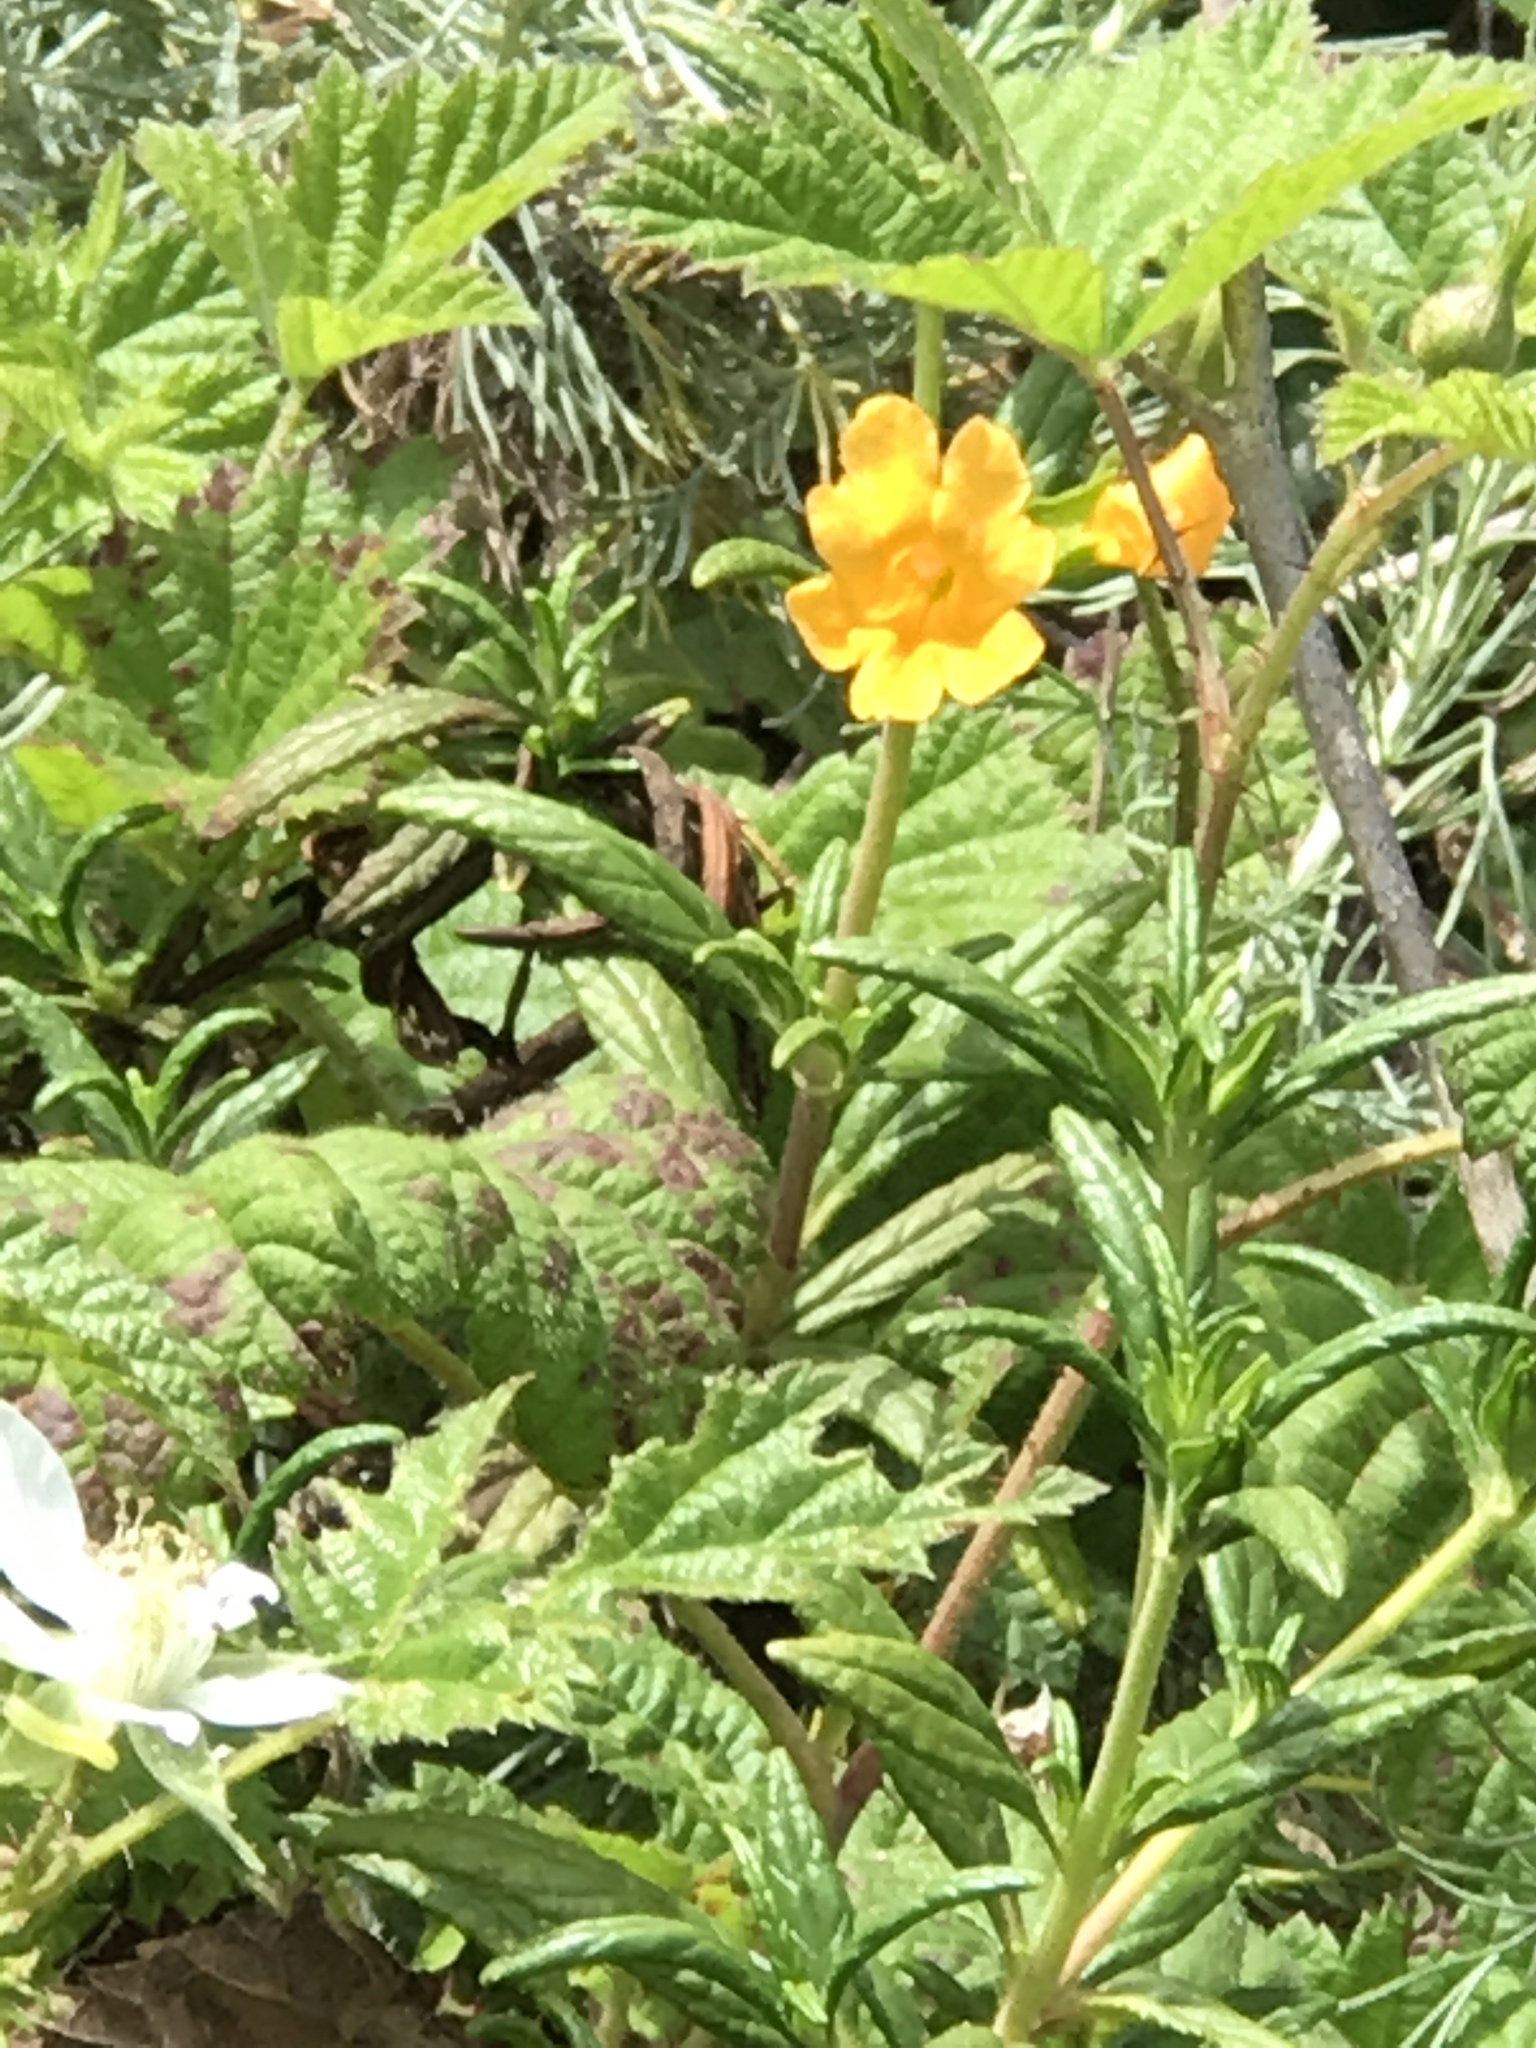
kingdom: Plantae
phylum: Tracheophyta
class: Magnoliopsida
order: Lamiales
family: Phrymaceae
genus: Diplacus
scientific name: Diplacus aurantiacus
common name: Bush monkey-flower
